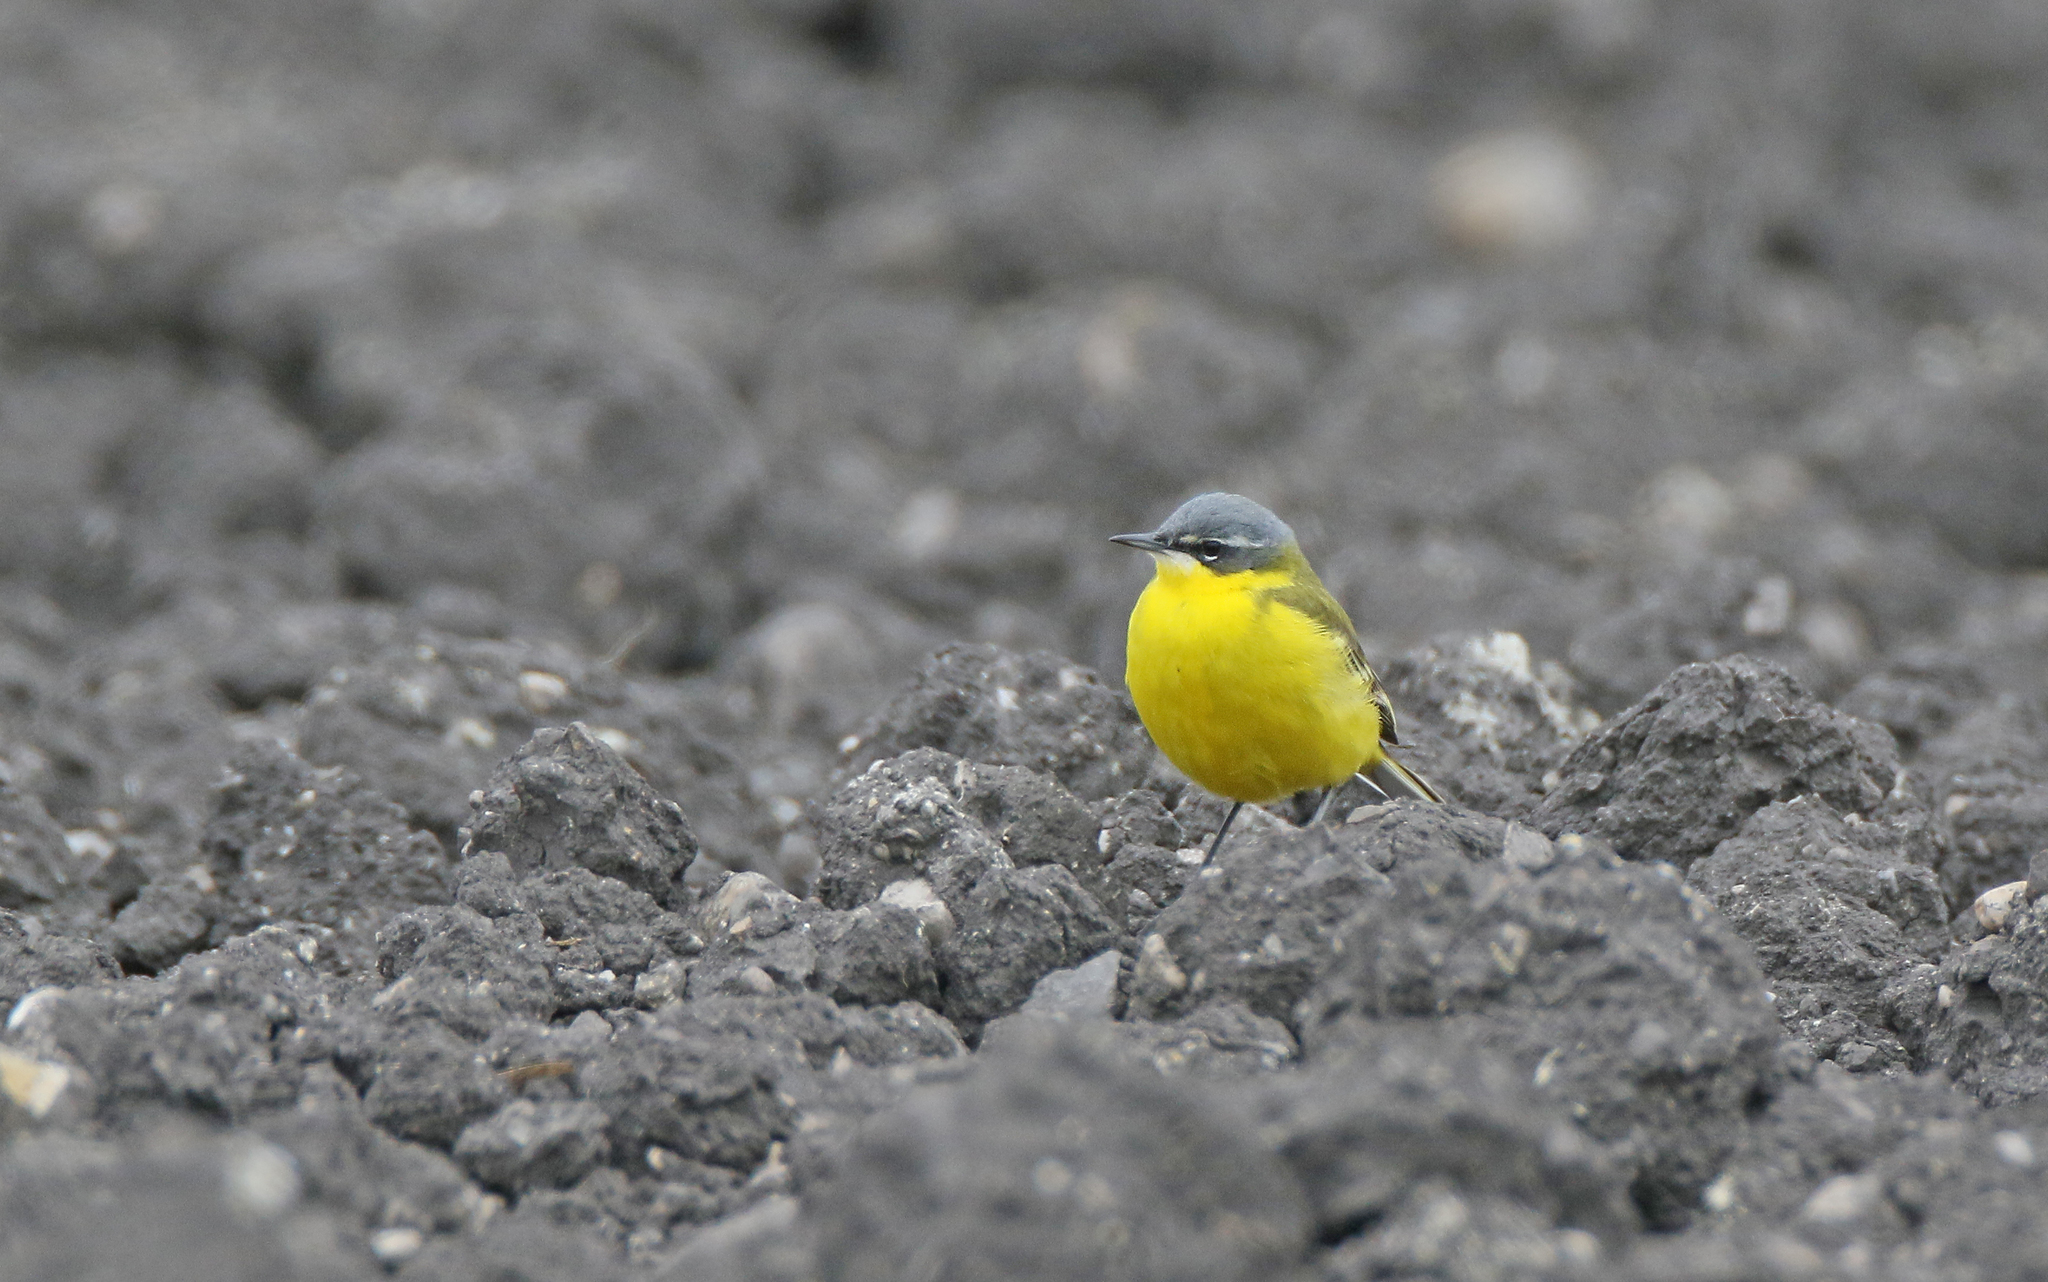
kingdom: Animalia
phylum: Chordata
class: Aves
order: Passeriformes
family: Motacillidae
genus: Motacilla
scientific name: Motacilla flava
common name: Western yellow wagtail
